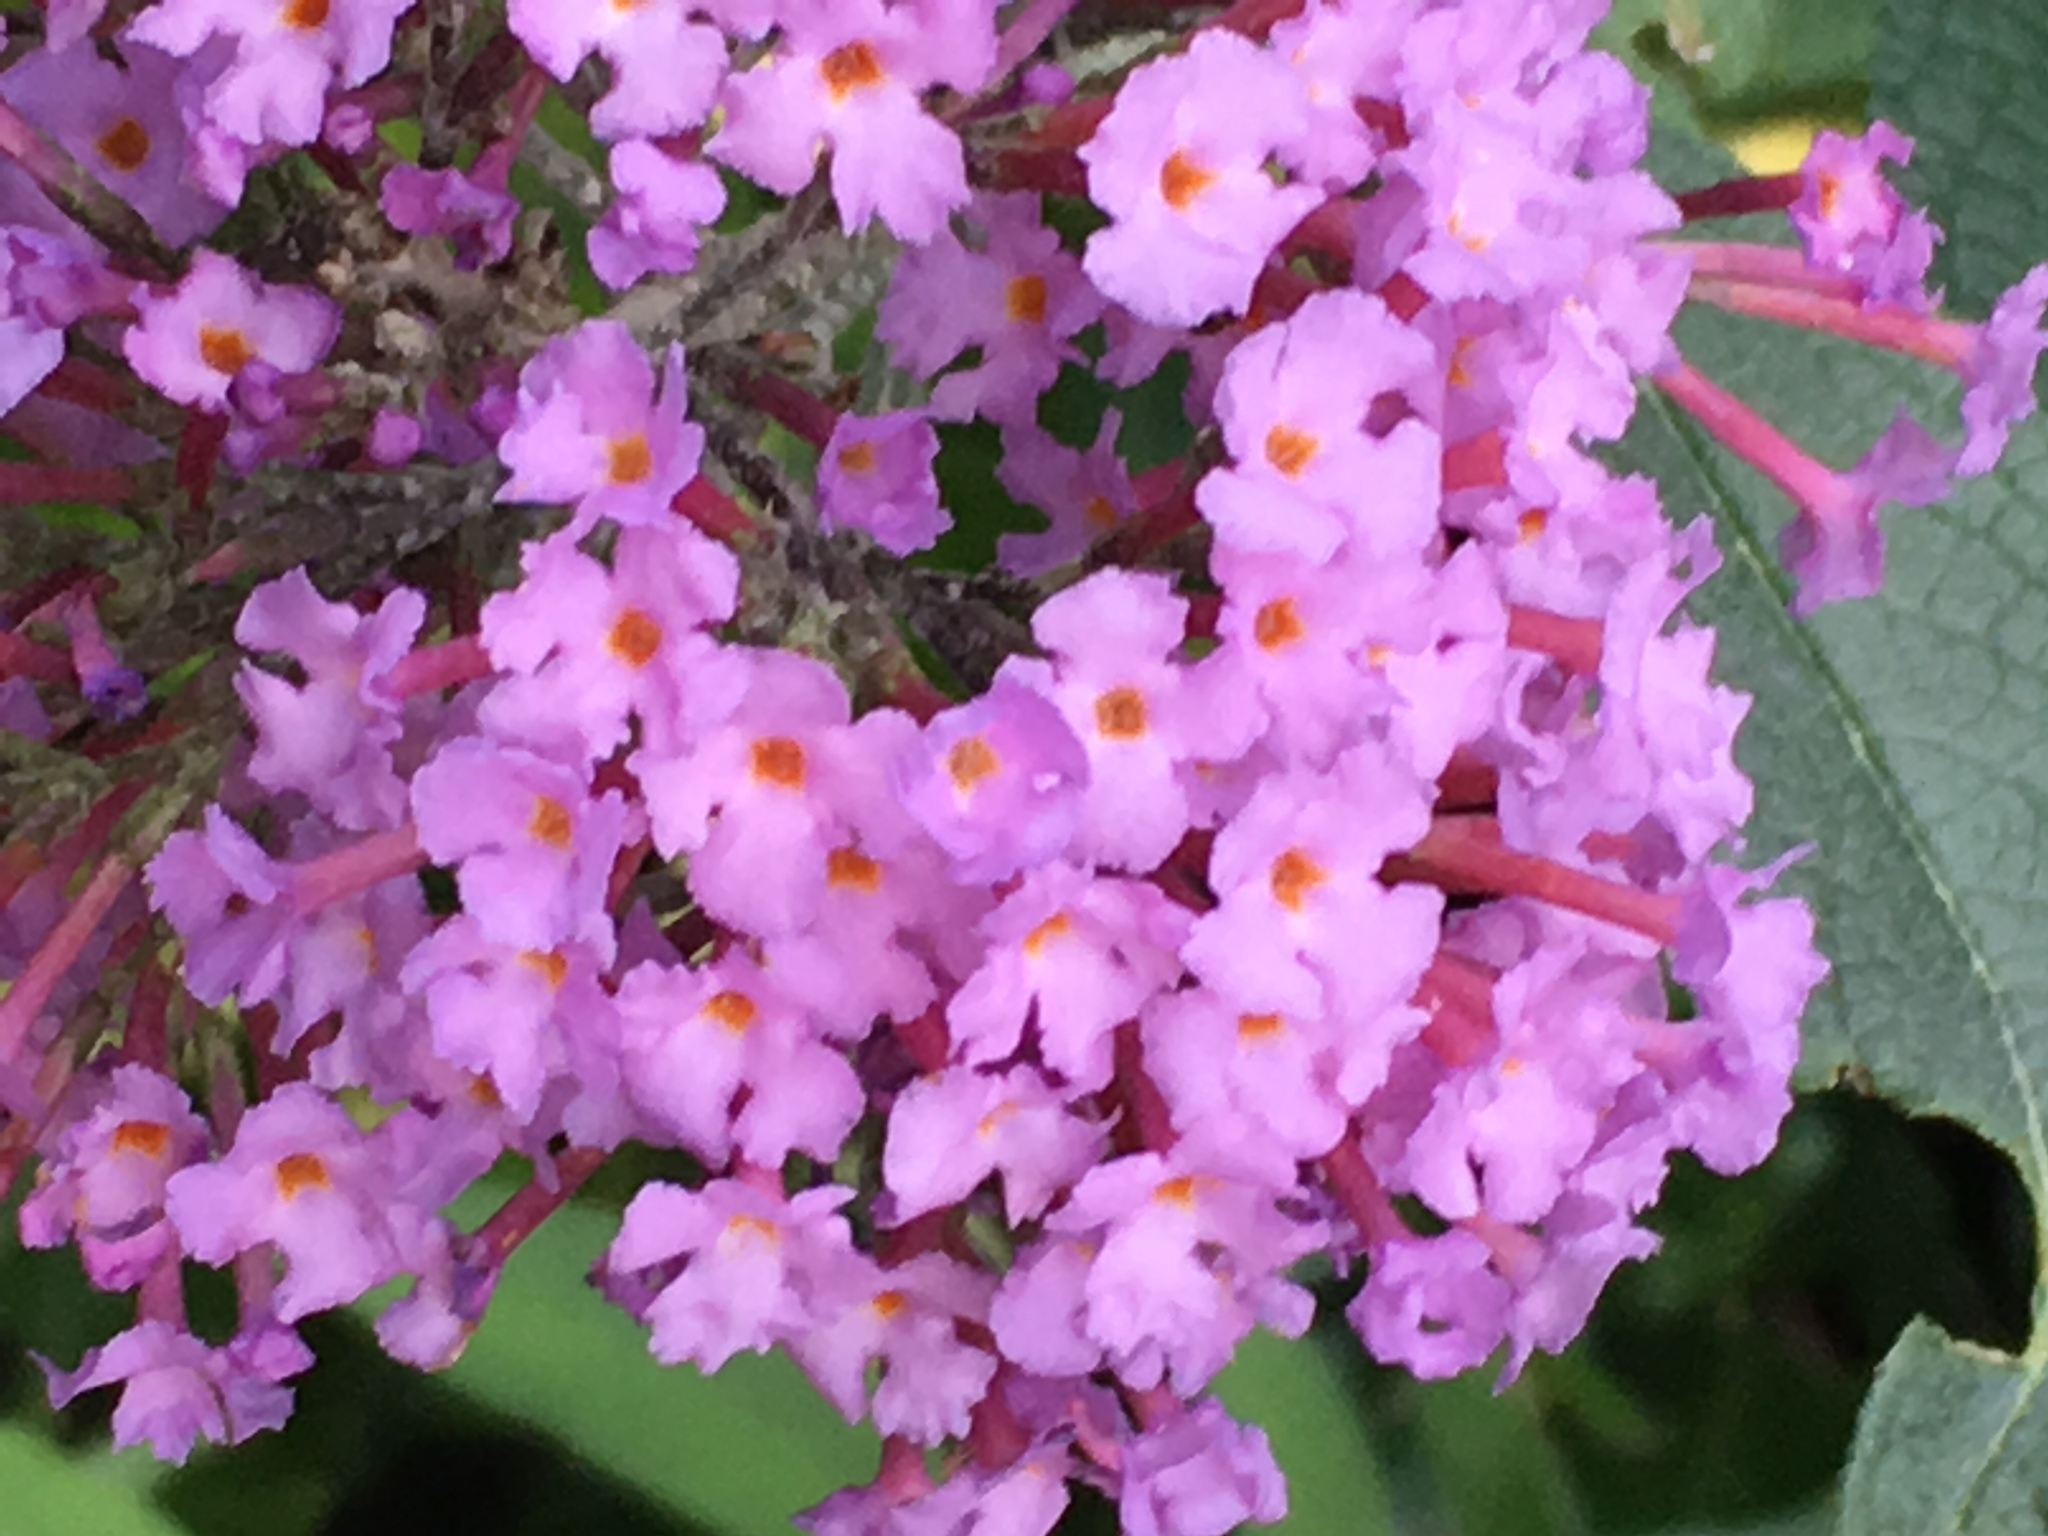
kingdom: Plantae
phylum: Tracheophyta
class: Magnoliopsida
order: Lamiales
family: Scrophulariaceae
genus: Buddleja
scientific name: Buddleja davidii
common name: Butterfly-bush
